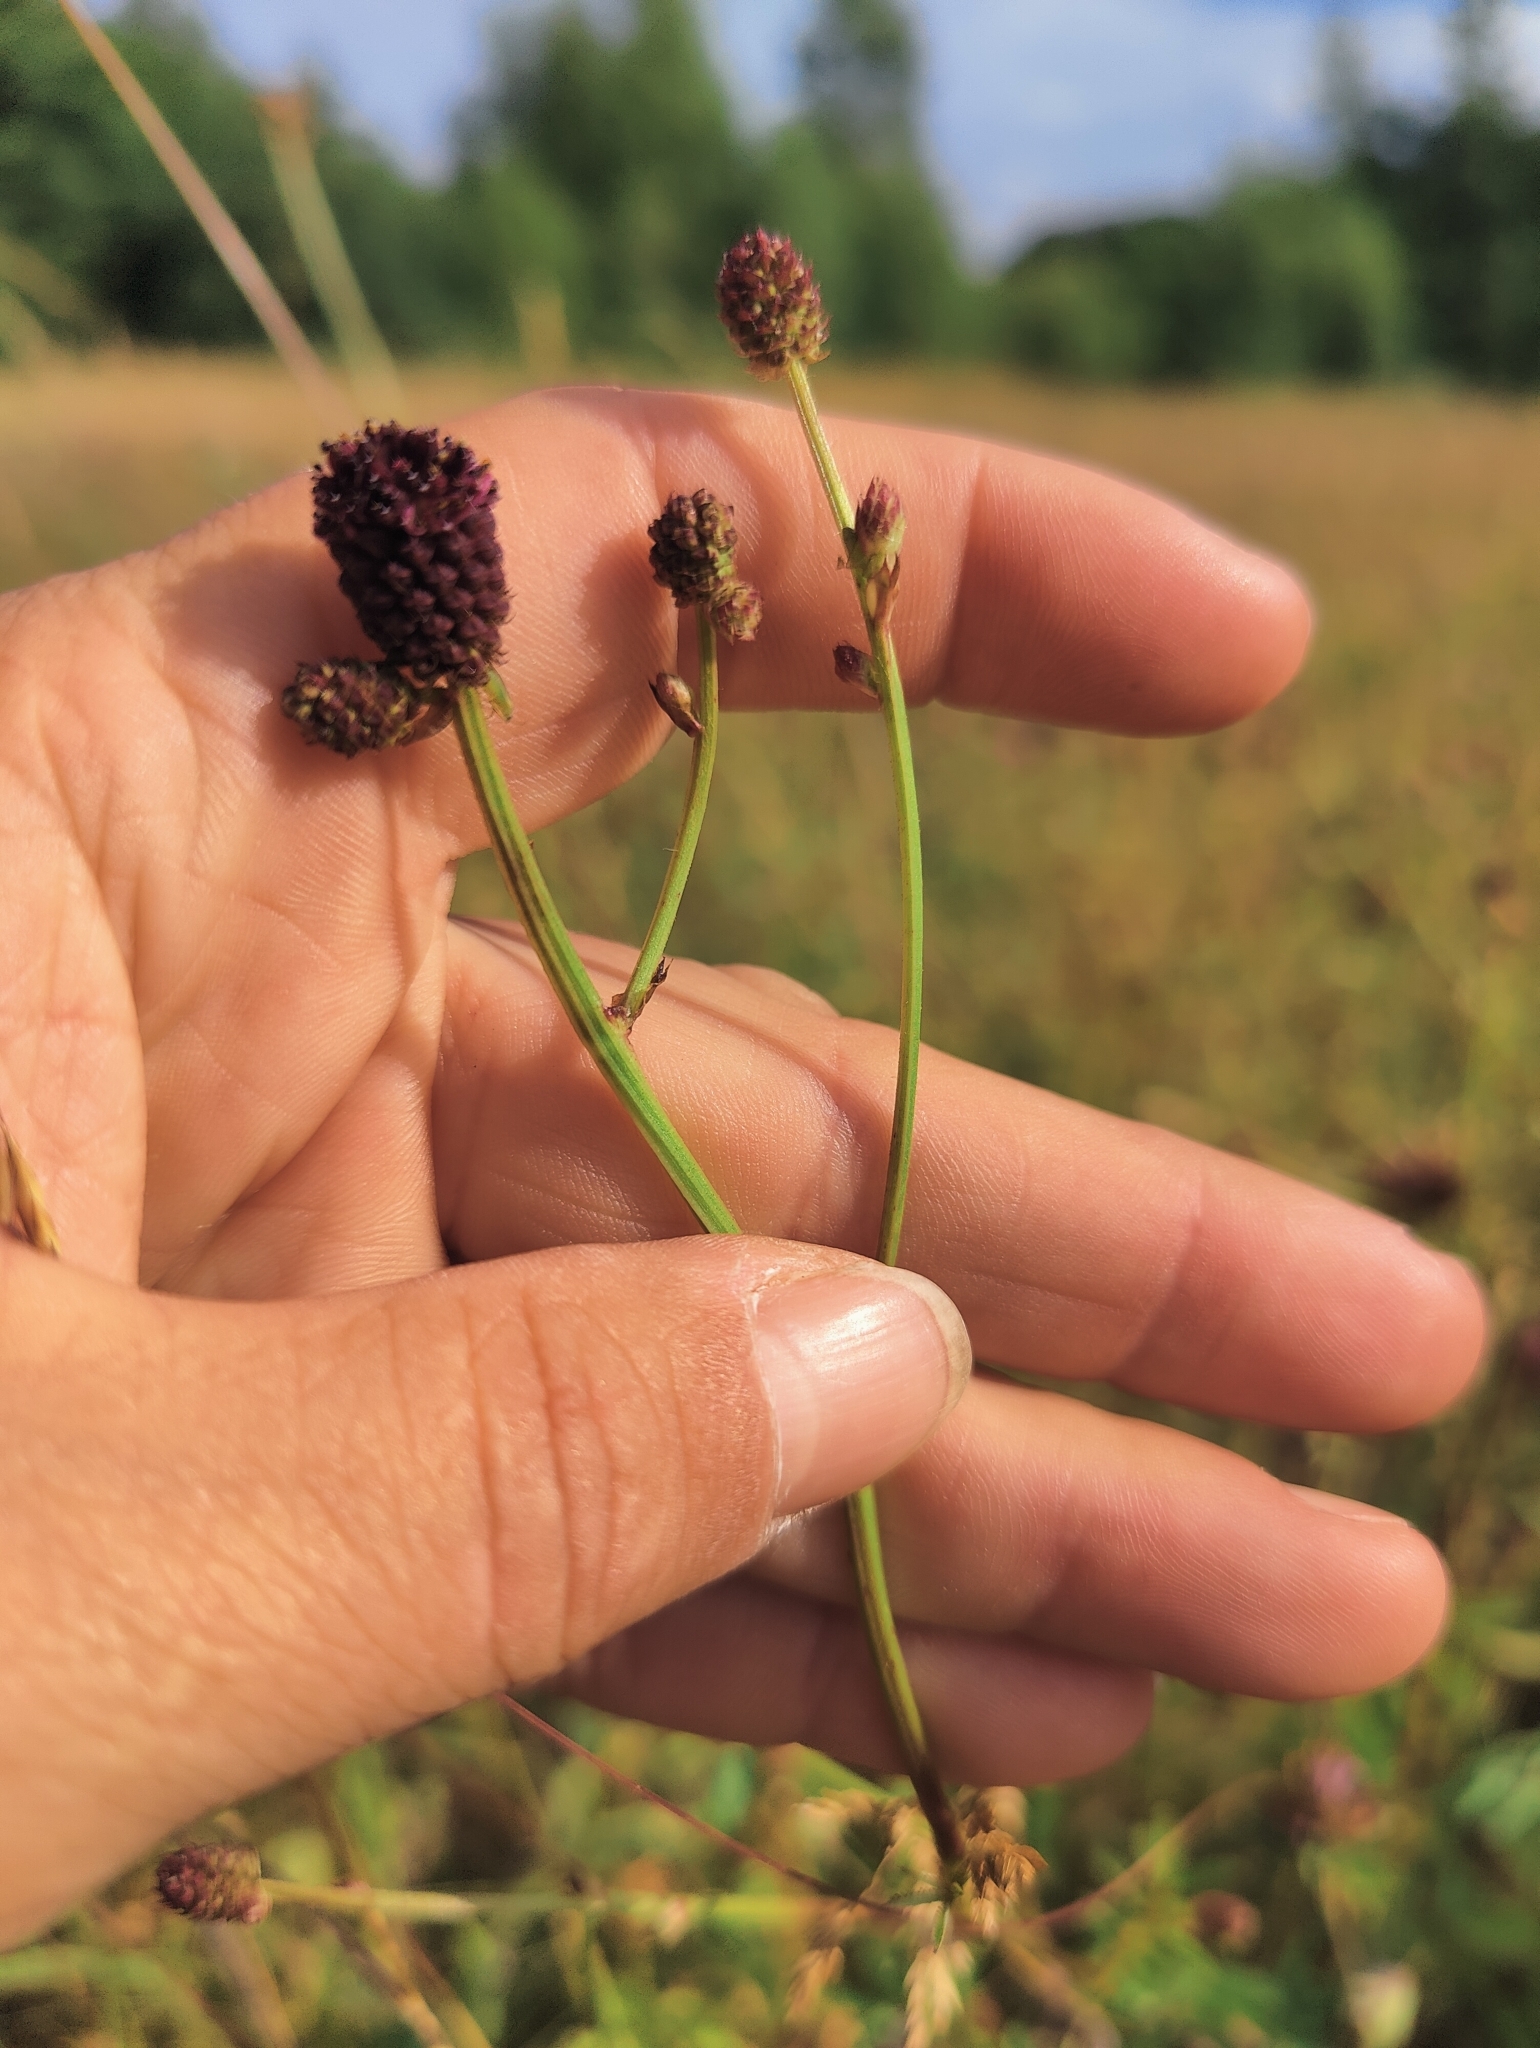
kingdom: Plantae
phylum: Tracheophyta
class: Magnoliopsida
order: Rosales
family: Rosaceae
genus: Sanguisorba
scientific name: Sanguisorba officinalis
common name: Great burnet
